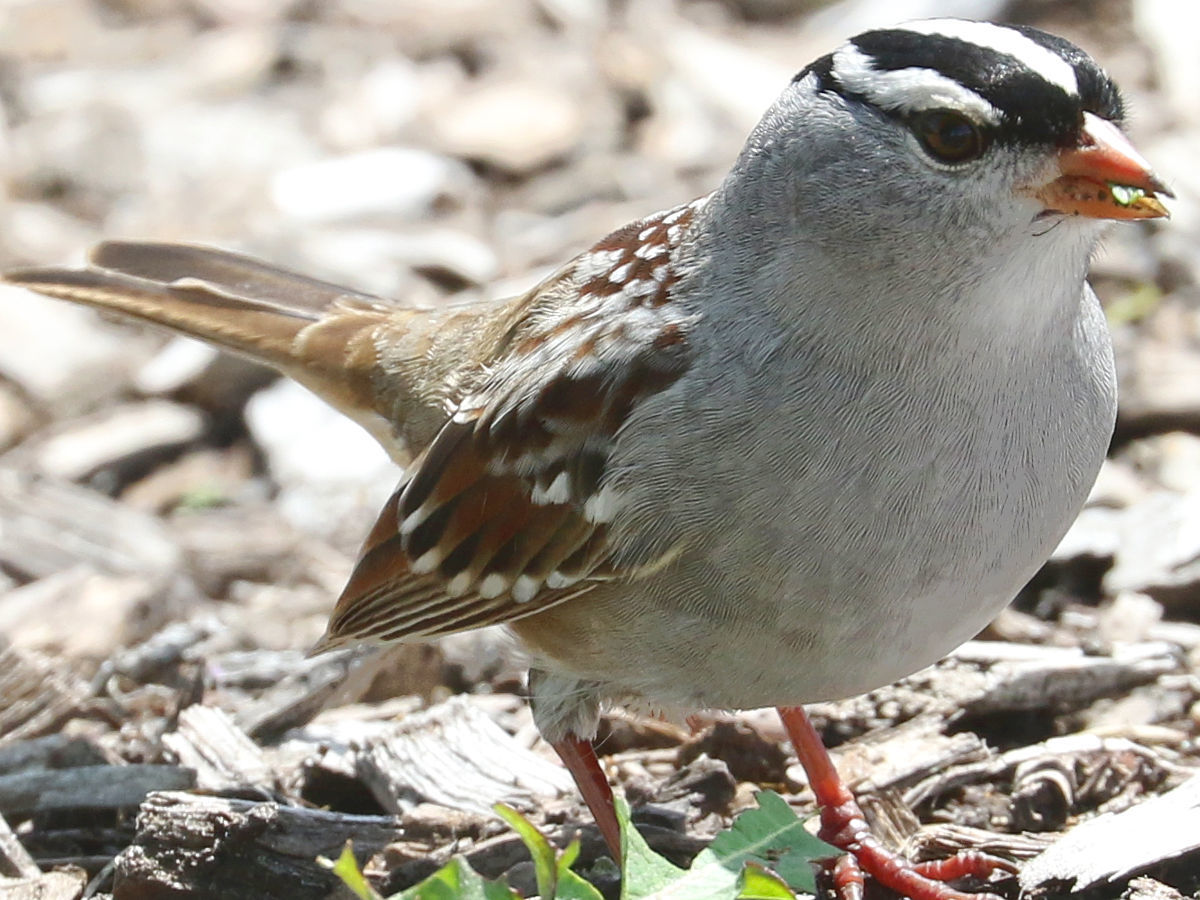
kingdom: Animalia
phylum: Chordata
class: Aves
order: Passeriformes
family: Passerellidae
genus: Zonotrichia
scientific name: Zonotrichia leucophrys
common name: White-crowned sparrow
